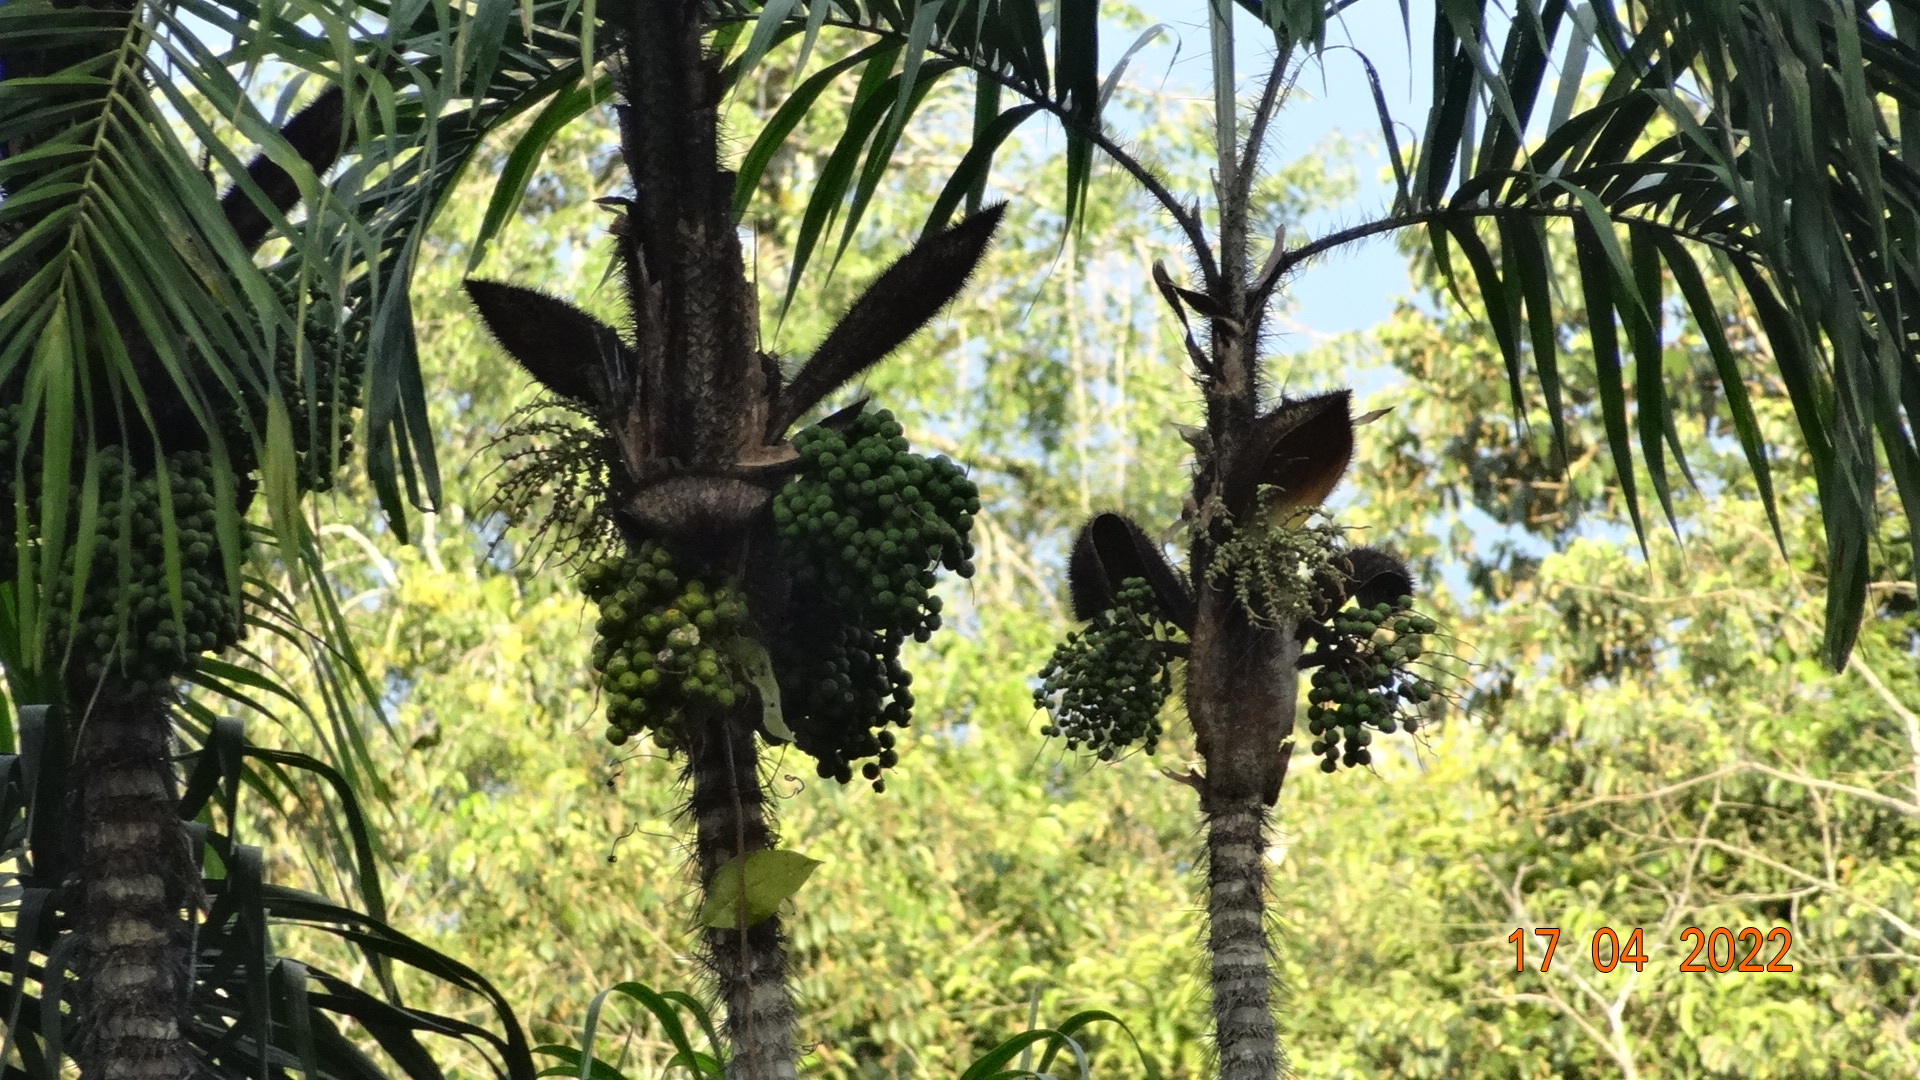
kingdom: Plantae
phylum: Tracheophyta
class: Liliopsida
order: Arecales
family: Arecaceae
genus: Bactris
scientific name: Bactris riparia
